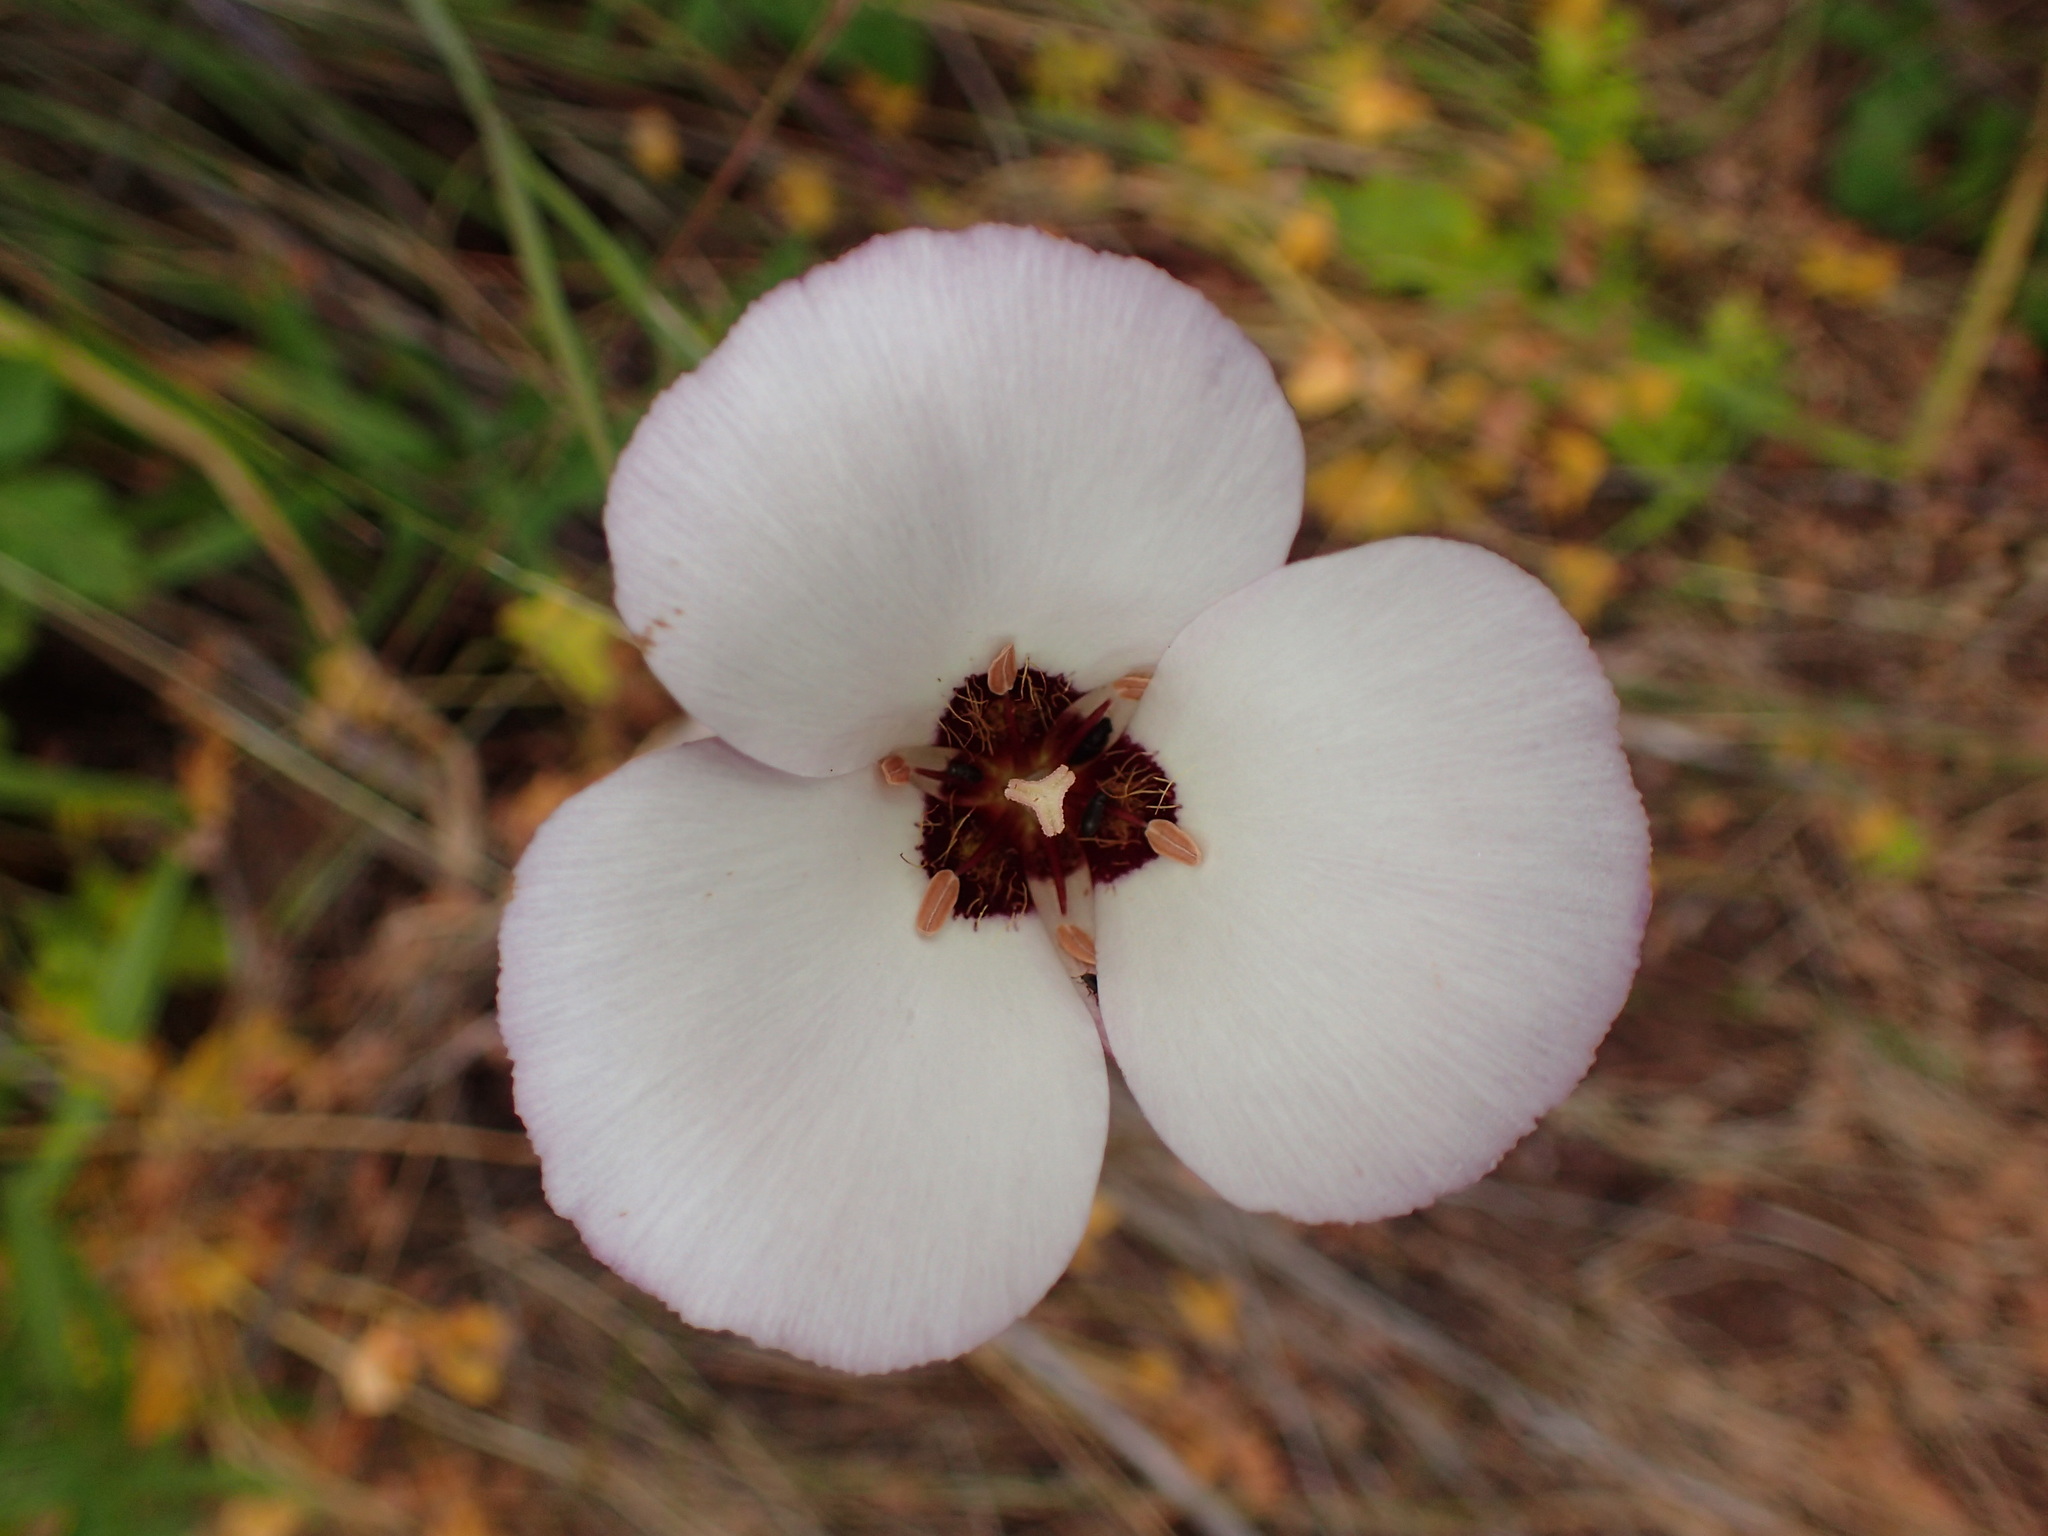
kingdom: Plantae
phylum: Tracheophyta
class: Liliopsida
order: Liliales
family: Liliaceae
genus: Calochortus
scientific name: Calochortus catalinae
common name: Catalina mariposa-lily
